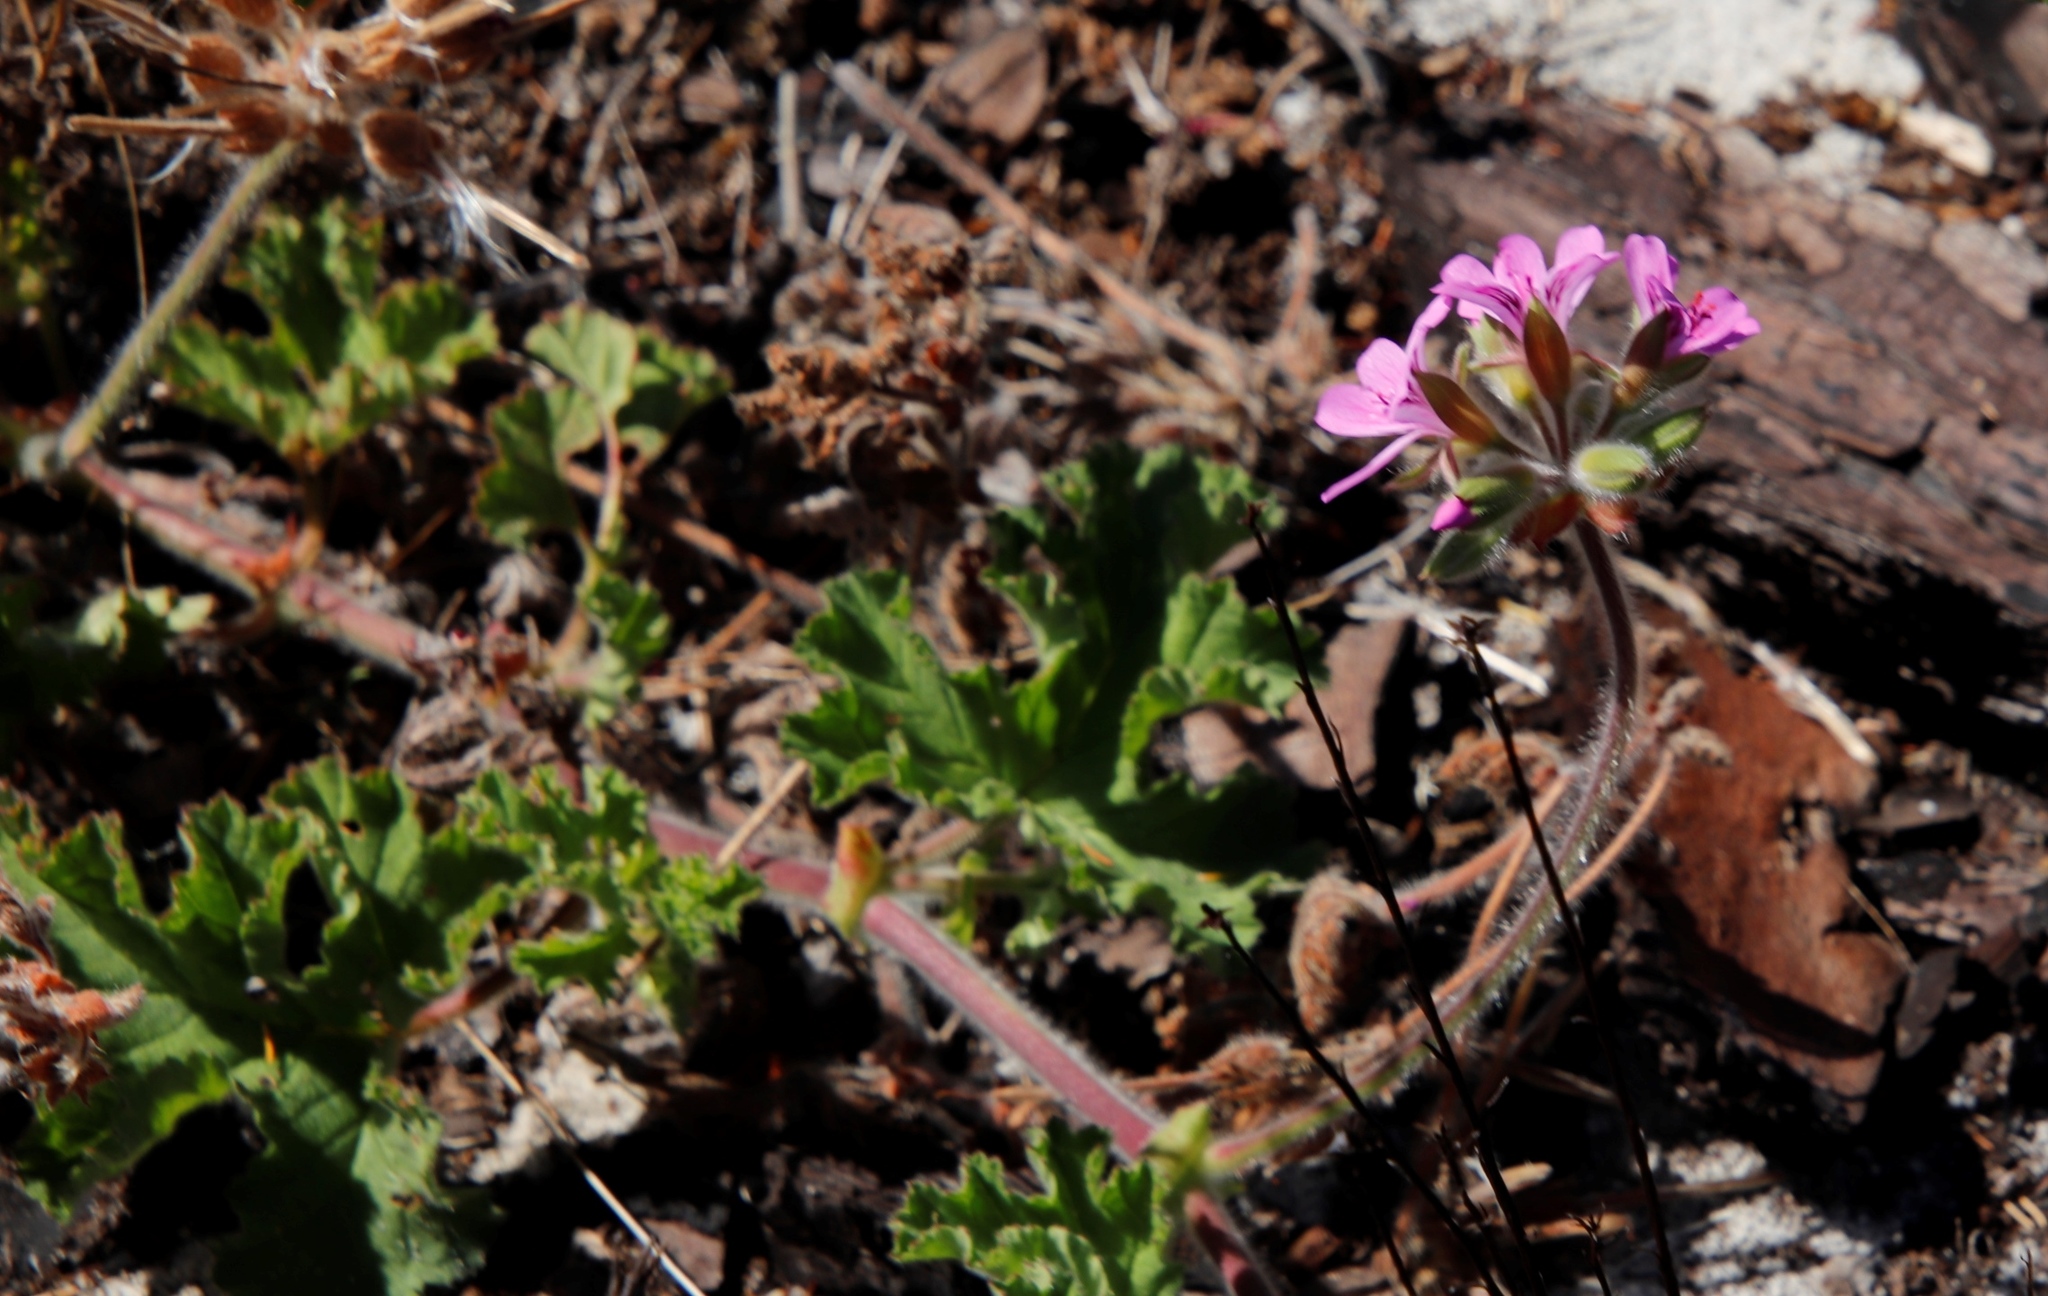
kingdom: Plantae
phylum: Tracheophyta
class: Magnoliopsida
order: Geraniales
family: Geraniaceae
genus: Pelargonium
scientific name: Pelargonium capitatum
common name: Rose scented geranium
